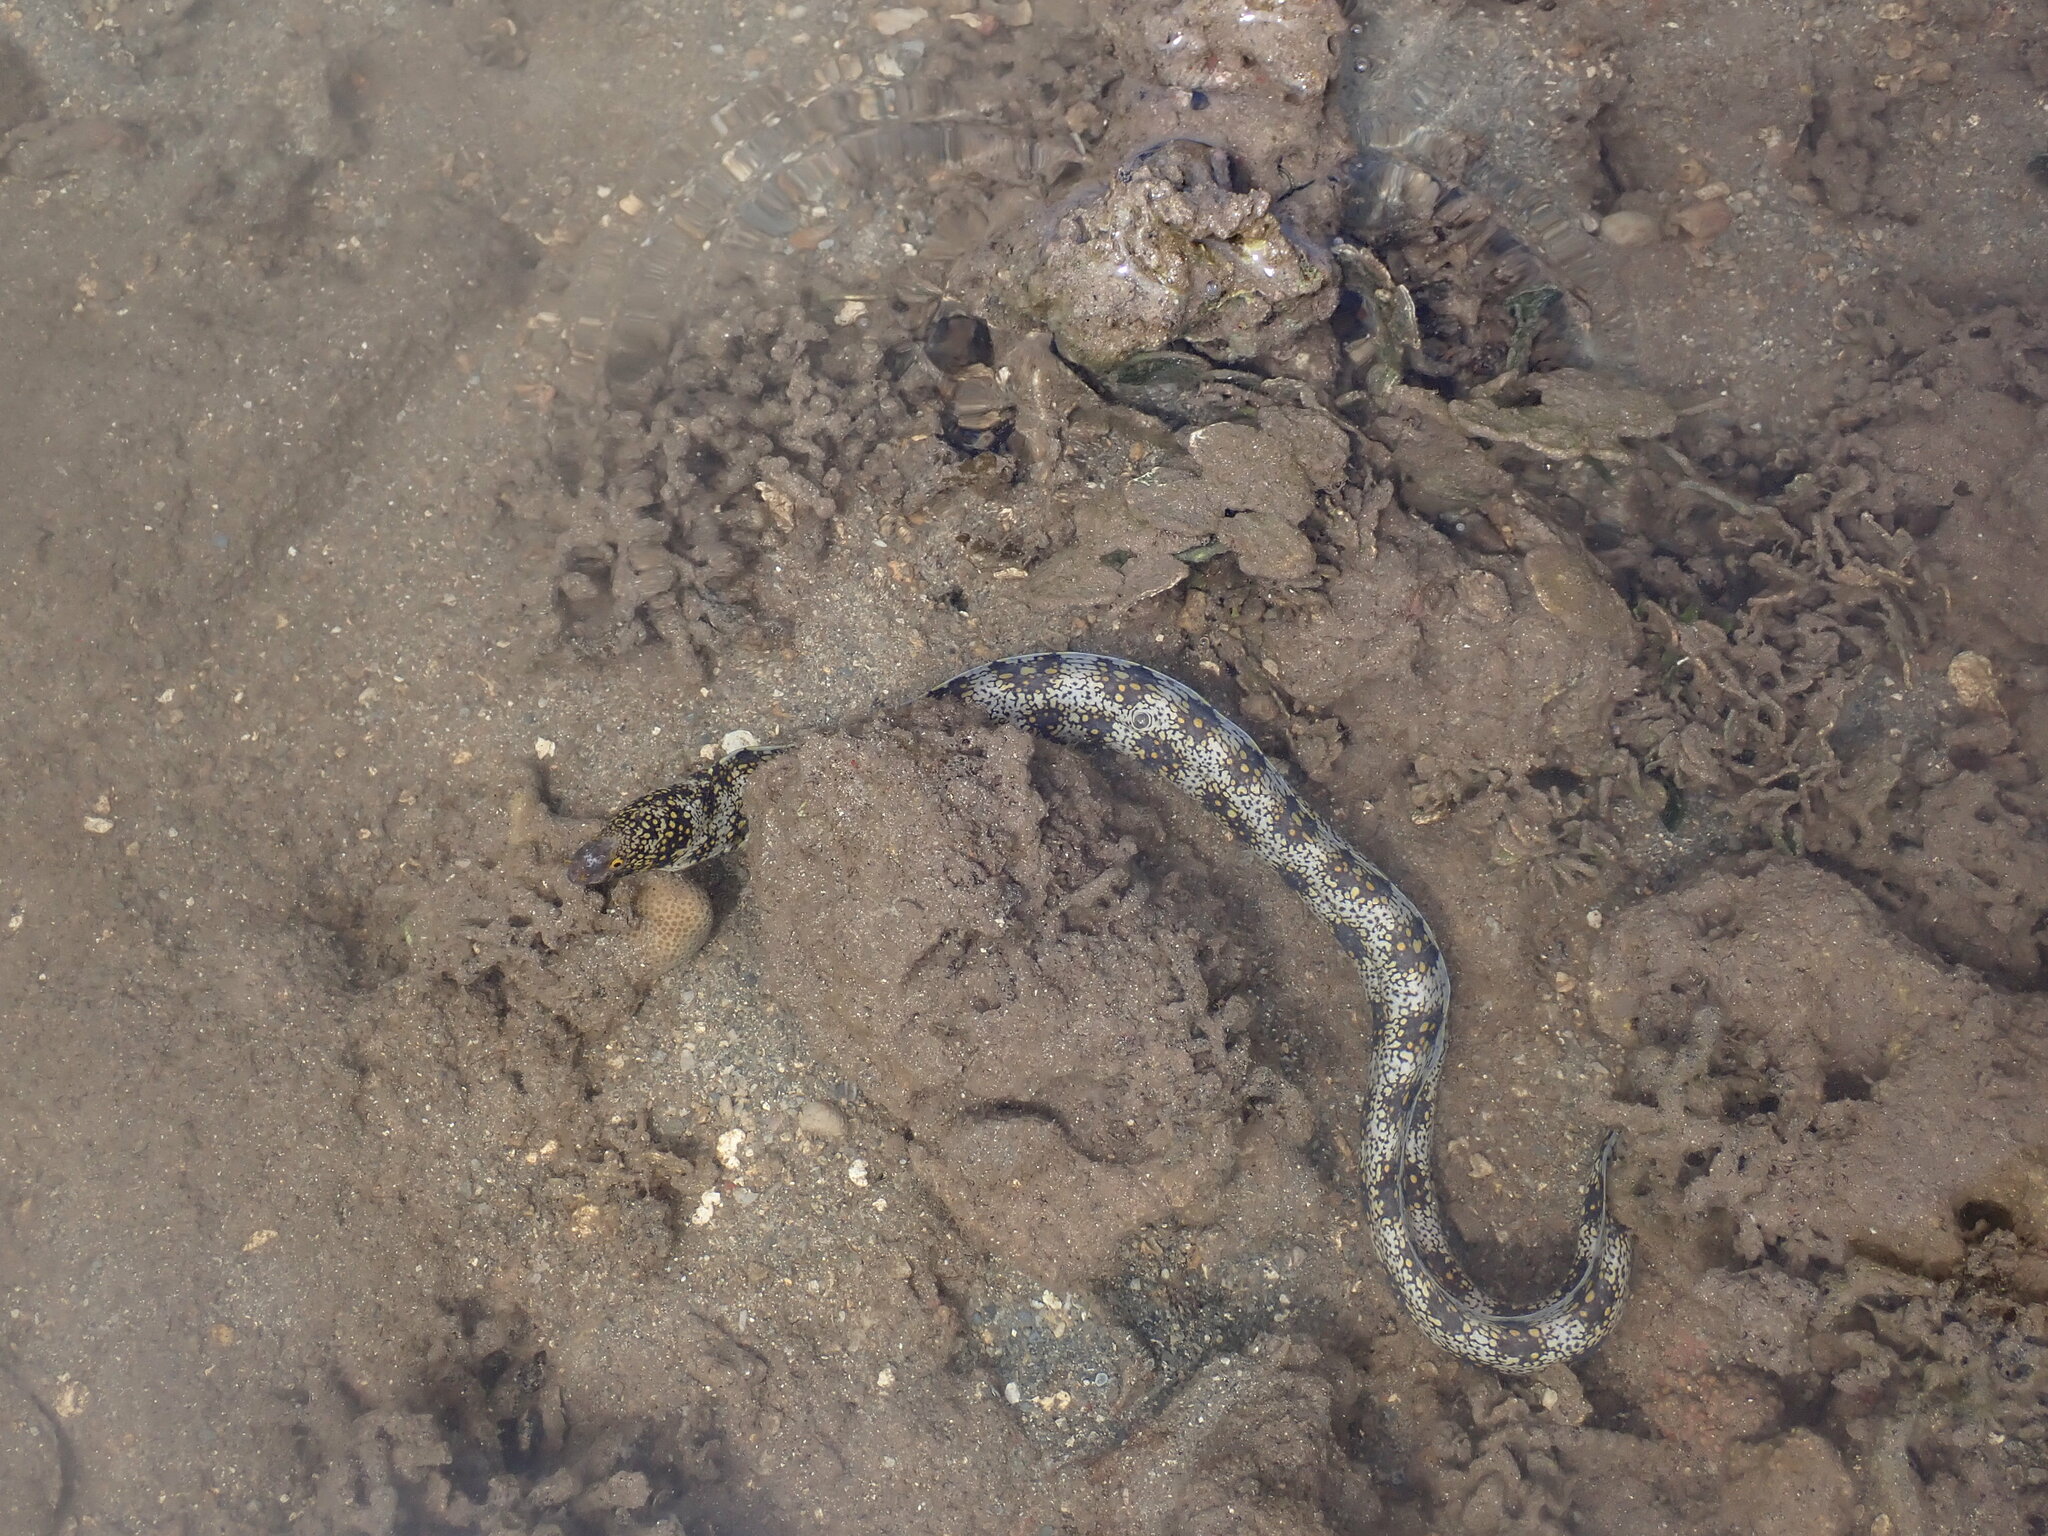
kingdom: Animalia
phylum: Chordata
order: Anguilliformes
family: Muraenidae
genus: Echidna
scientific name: Echidna nebulosa
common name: Snowflake moray
